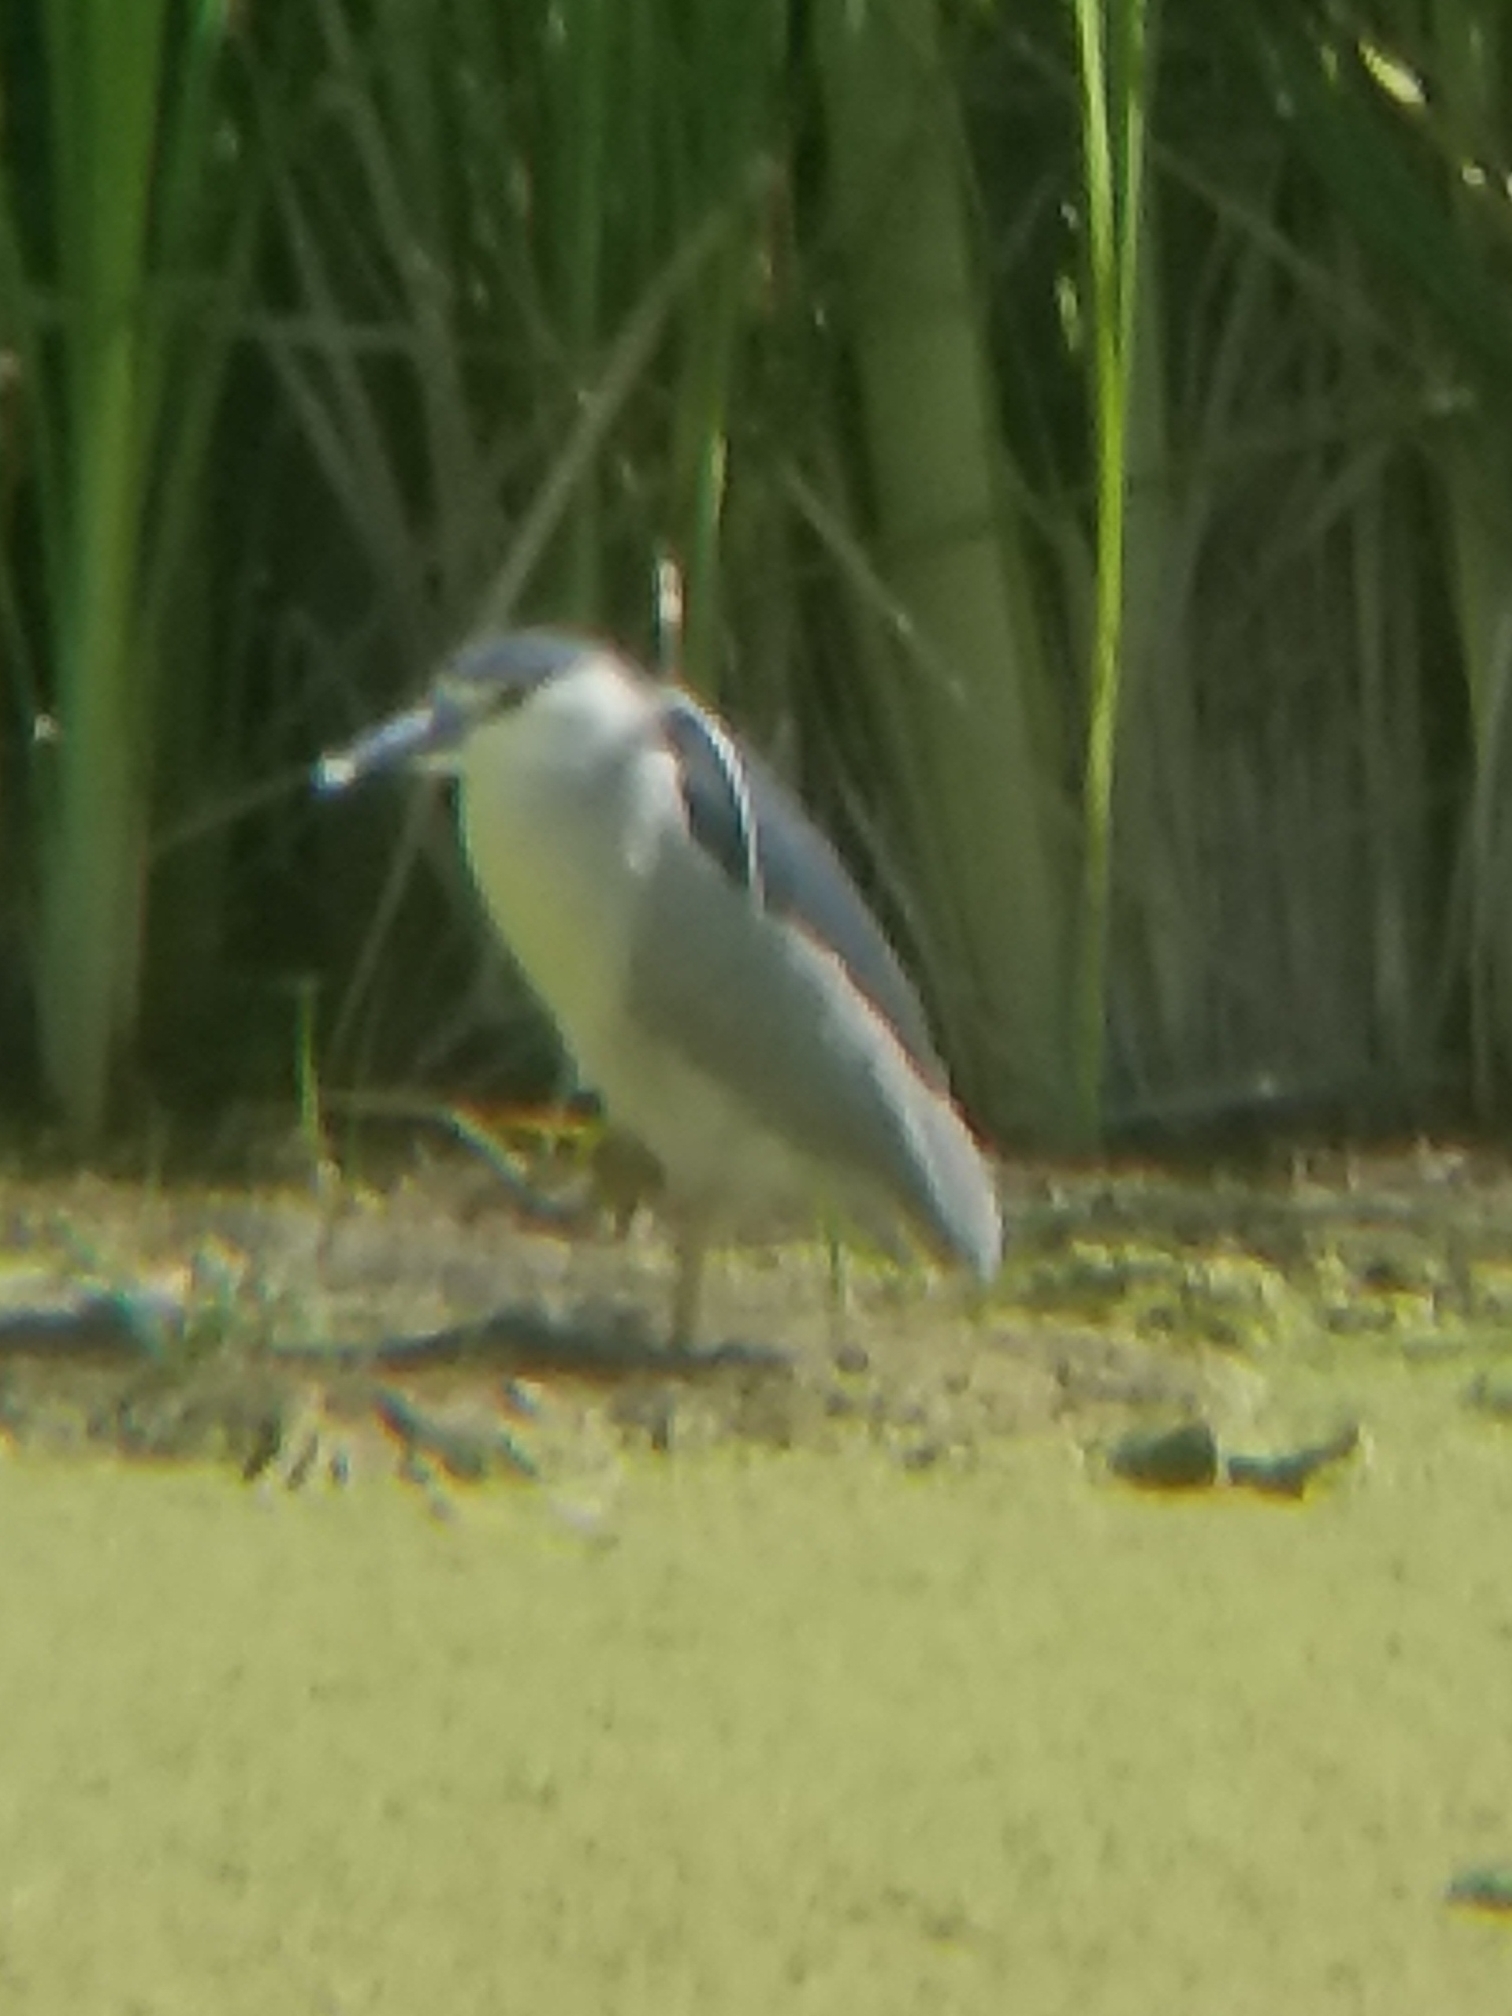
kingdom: Animalia
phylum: Chordata
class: Aves
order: Pelecaniformes
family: Ardeidae
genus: Nycticorax
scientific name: Nycticorax nycticorax
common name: Black-crowned night heron
